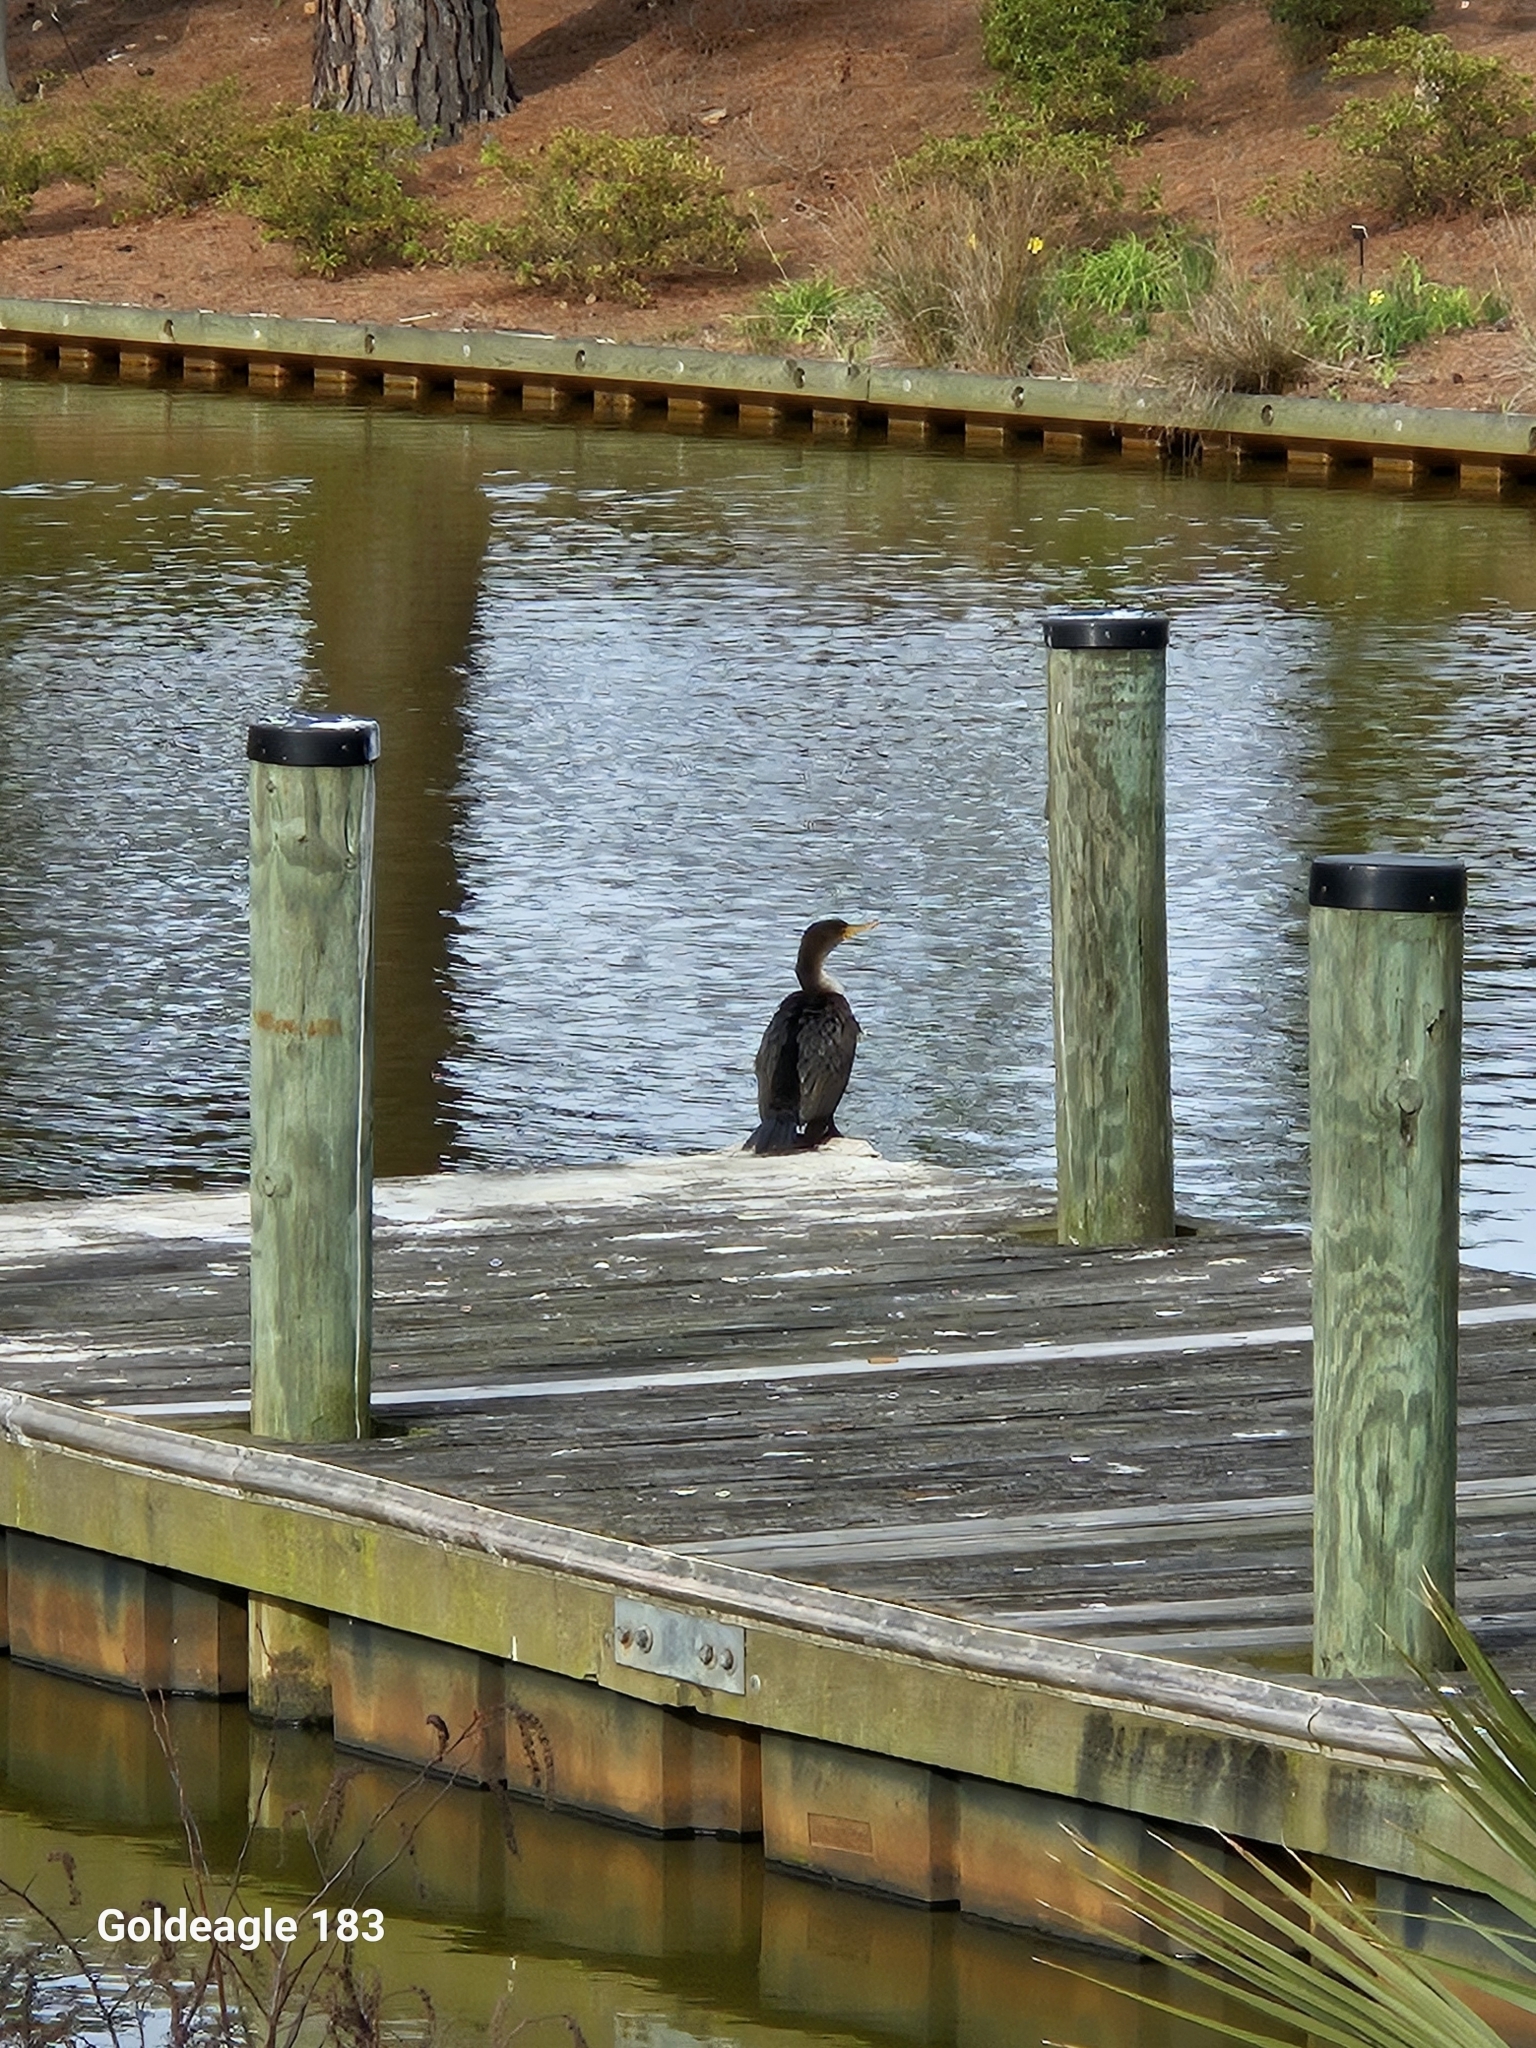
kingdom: Animalia
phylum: Chordata
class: Aves
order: Suliformes
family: Phalacrocoracidae
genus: Phalacrocorax
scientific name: Phalacrocorax auritus
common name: Double-crested cormorant
